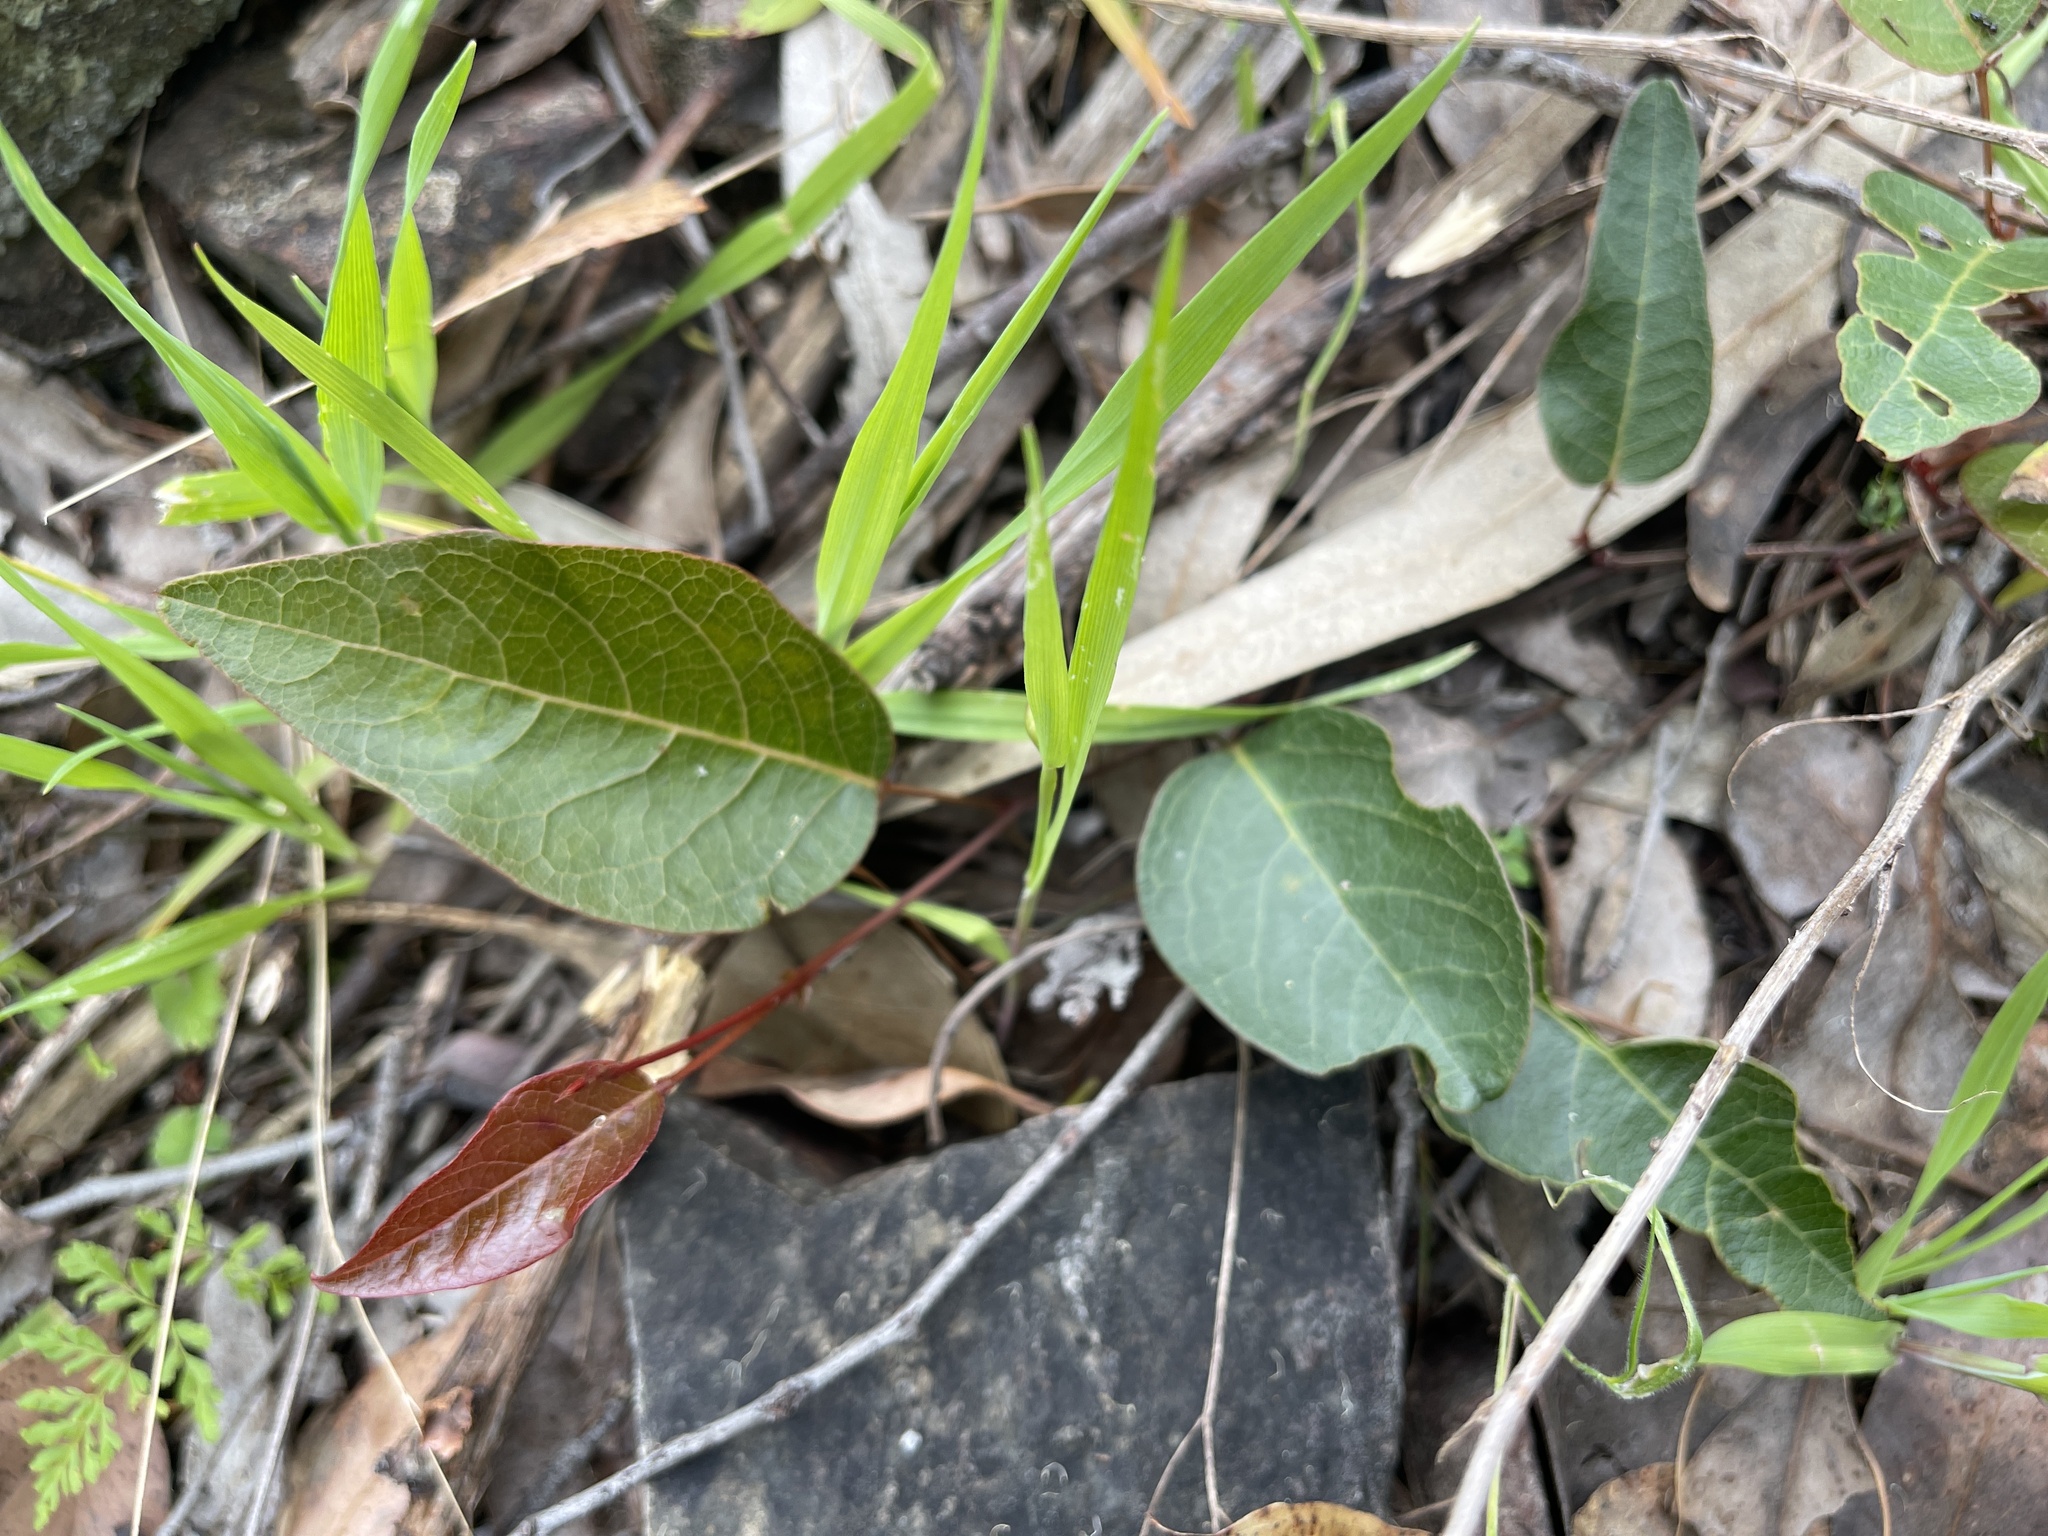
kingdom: Plantae
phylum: Tracheophyta
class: Magnoliopsida
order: Fabales
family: Fabaceae
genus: Hardenbergia
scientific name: Hardenbergia violacea
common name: Coral-pea
